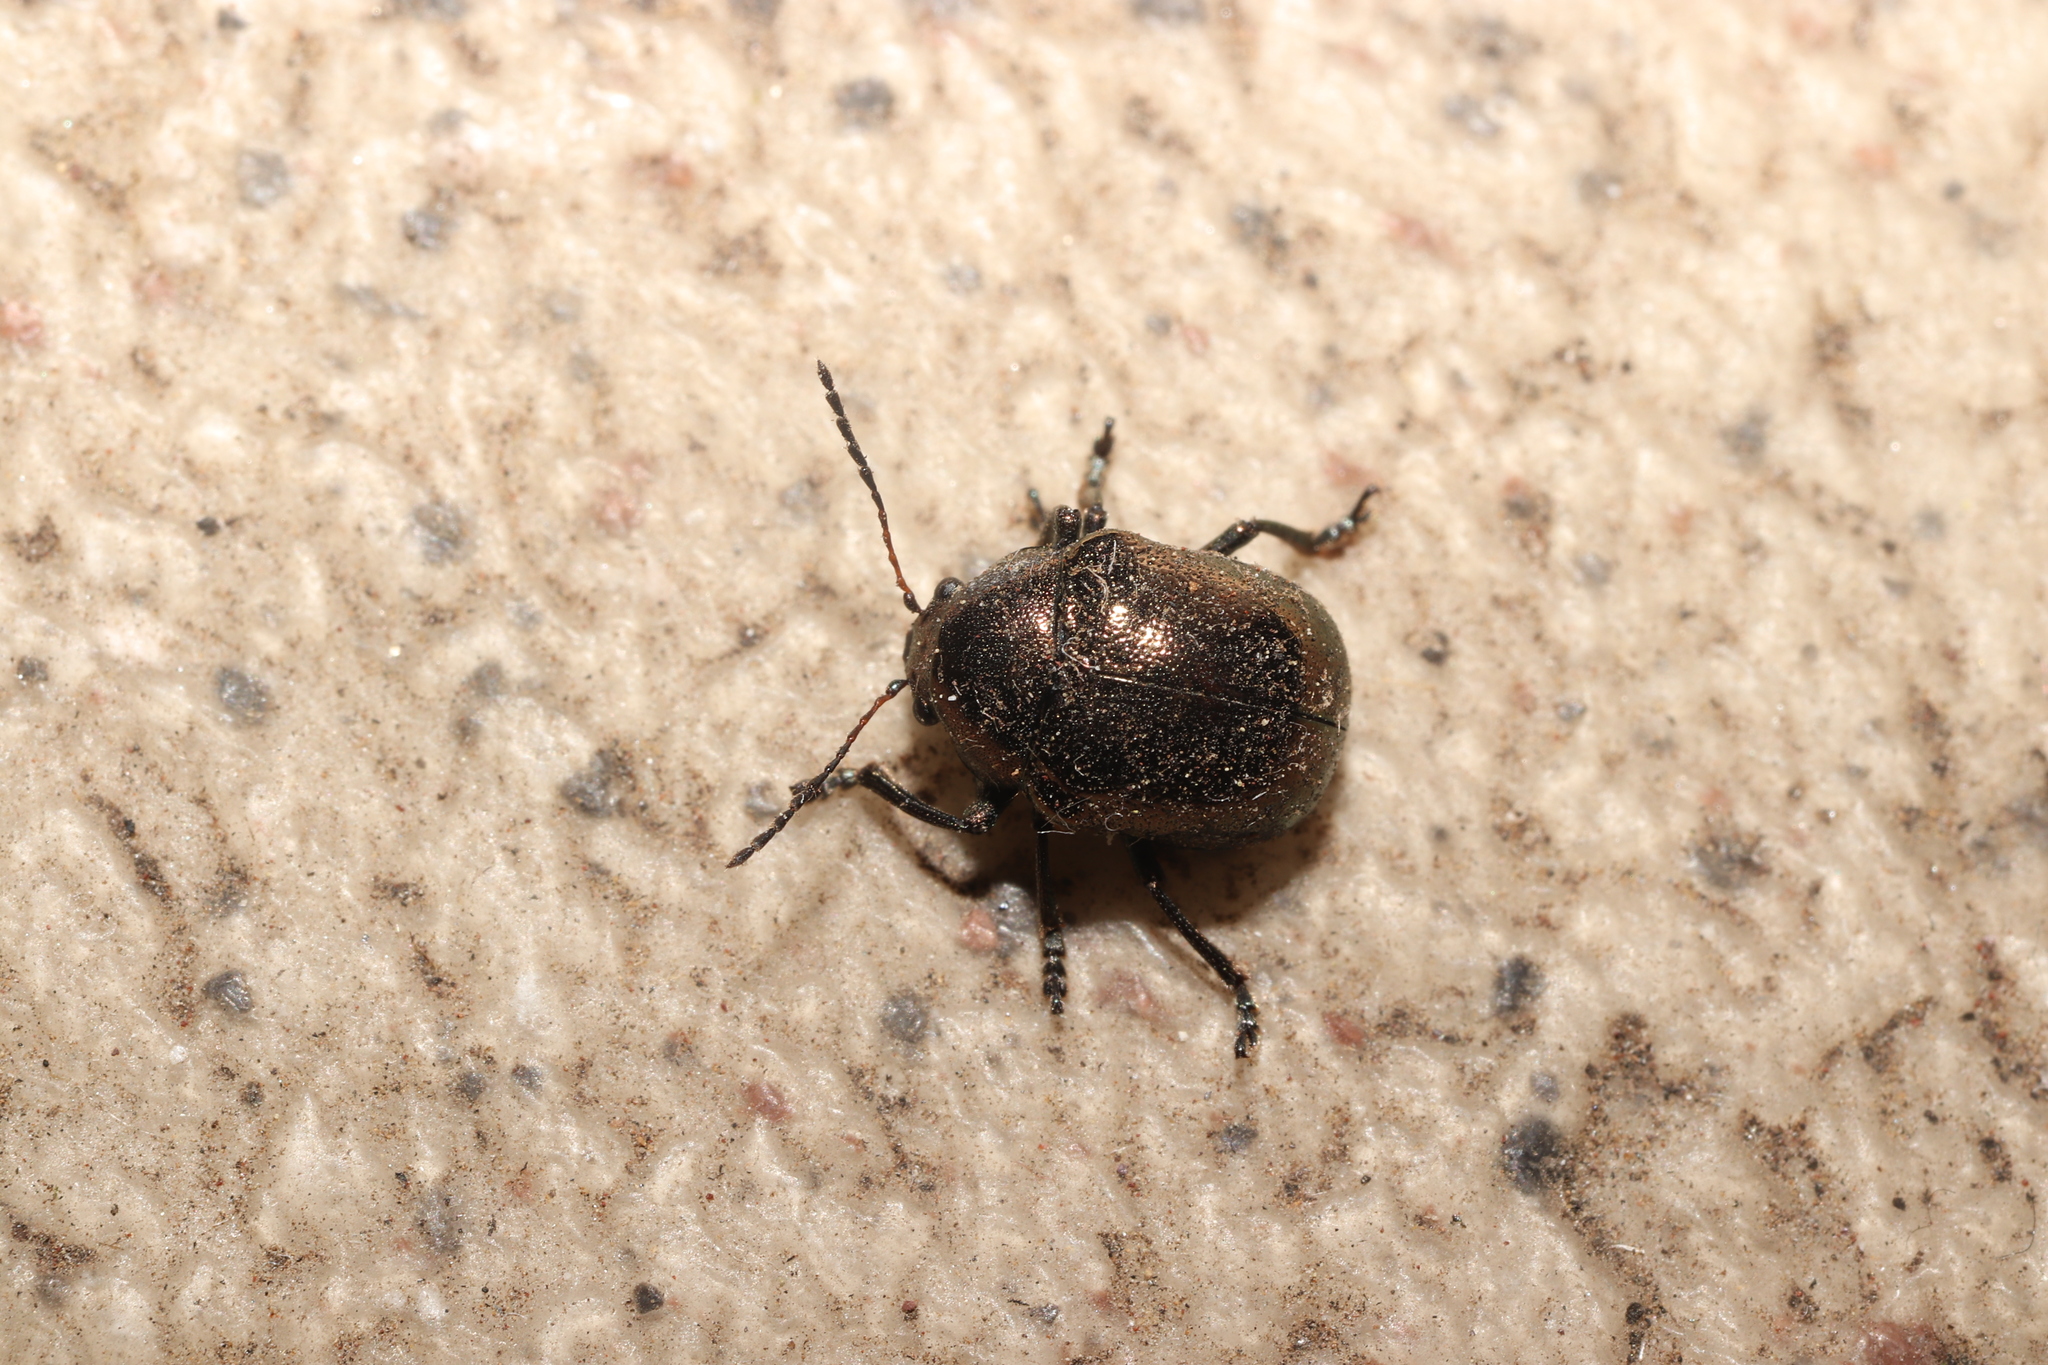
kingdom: Animalia
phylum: Arthropoda
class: Insecta
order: Coleoptera
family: Chrysomelidae
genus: Colasposoma
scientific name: Colasposoma dauricum
